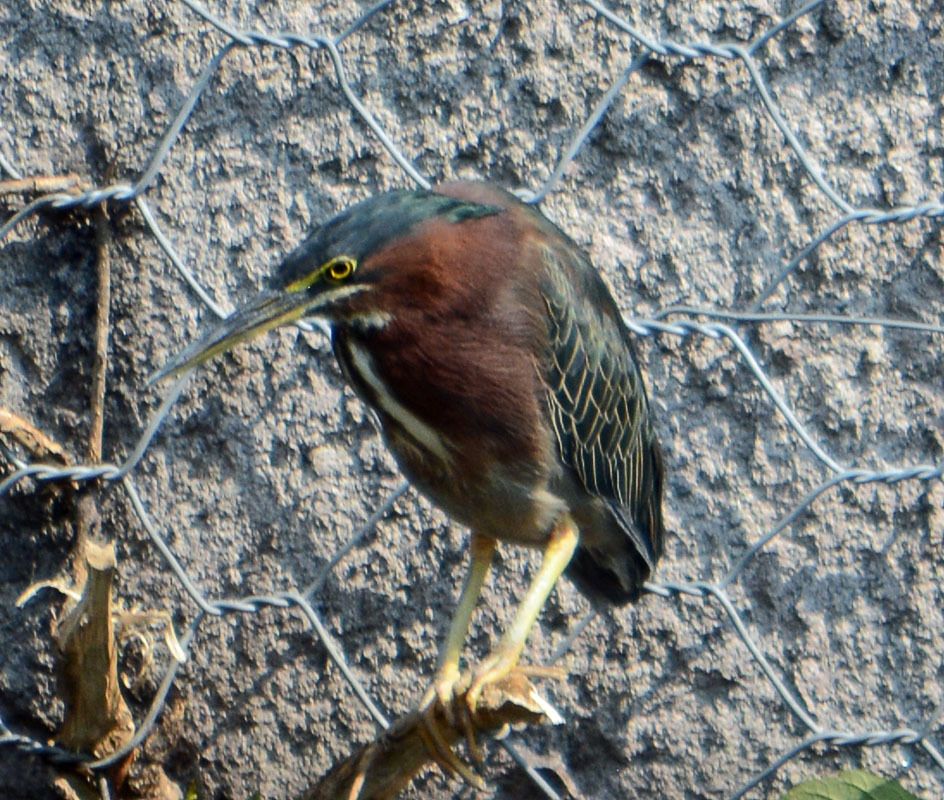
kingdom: Animalia
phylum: Chordata
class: Aves
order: Pelecaniformes
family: Ardeidae
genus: Butorides
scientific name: Butorides virescens
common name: Green heron
